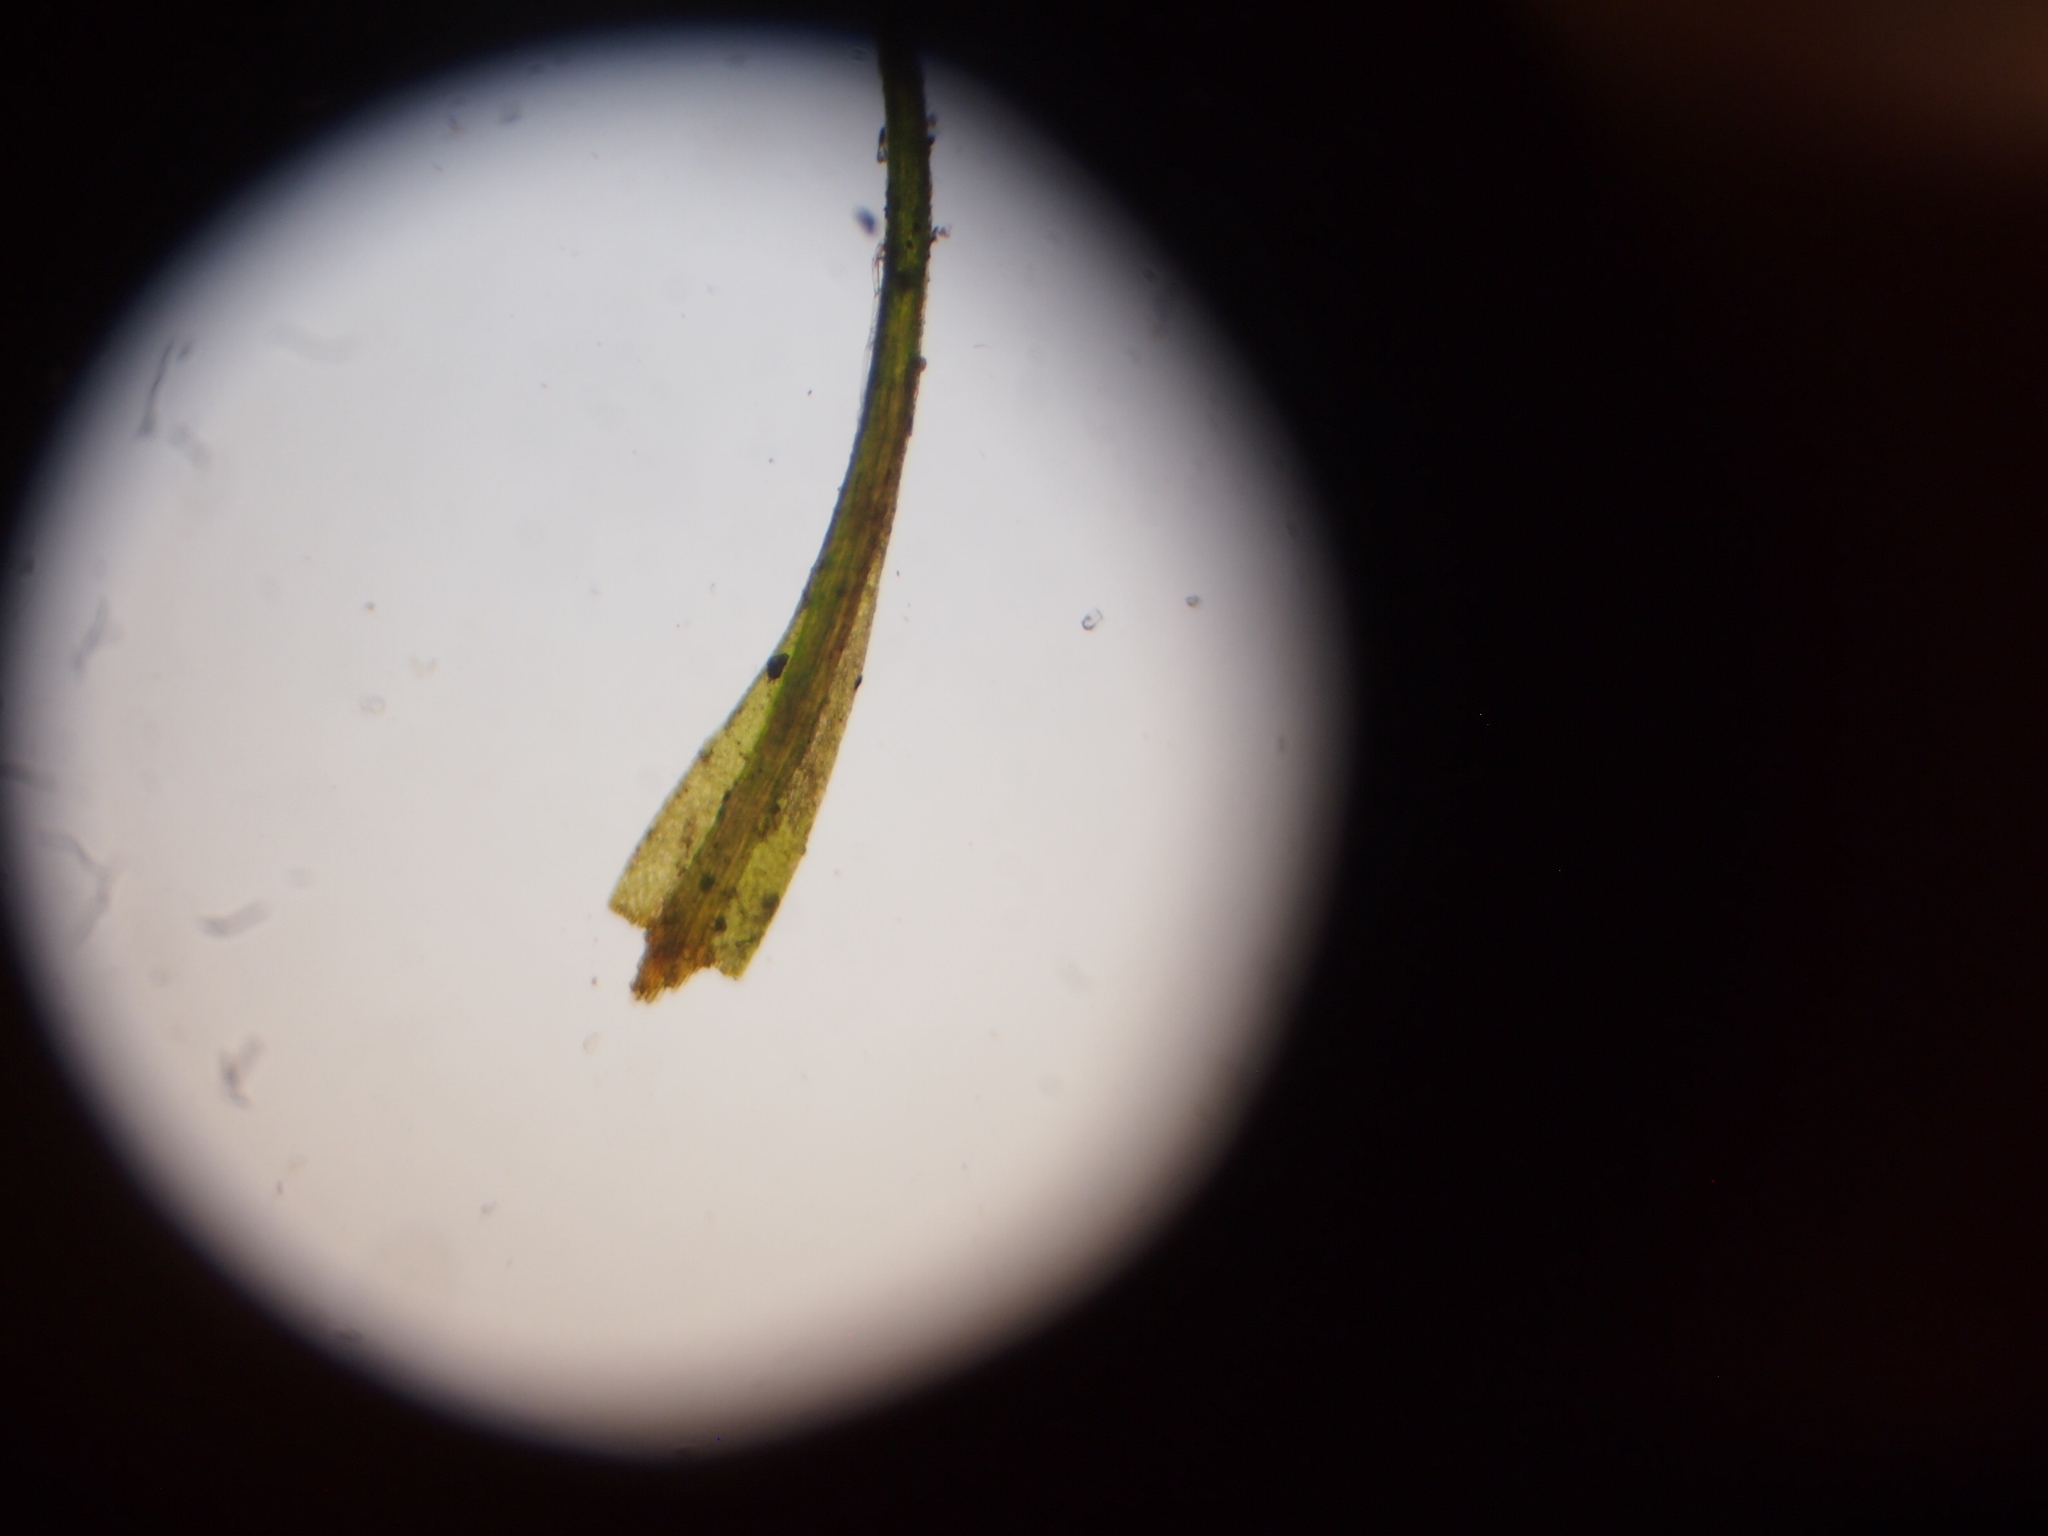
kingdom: Plantae
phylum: Bryophyta
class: Bryopsida
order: Dicranales
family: Dicranellaceae
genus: Dicranella
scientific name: Dicranella heteromalla
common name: Silky forklet moss
